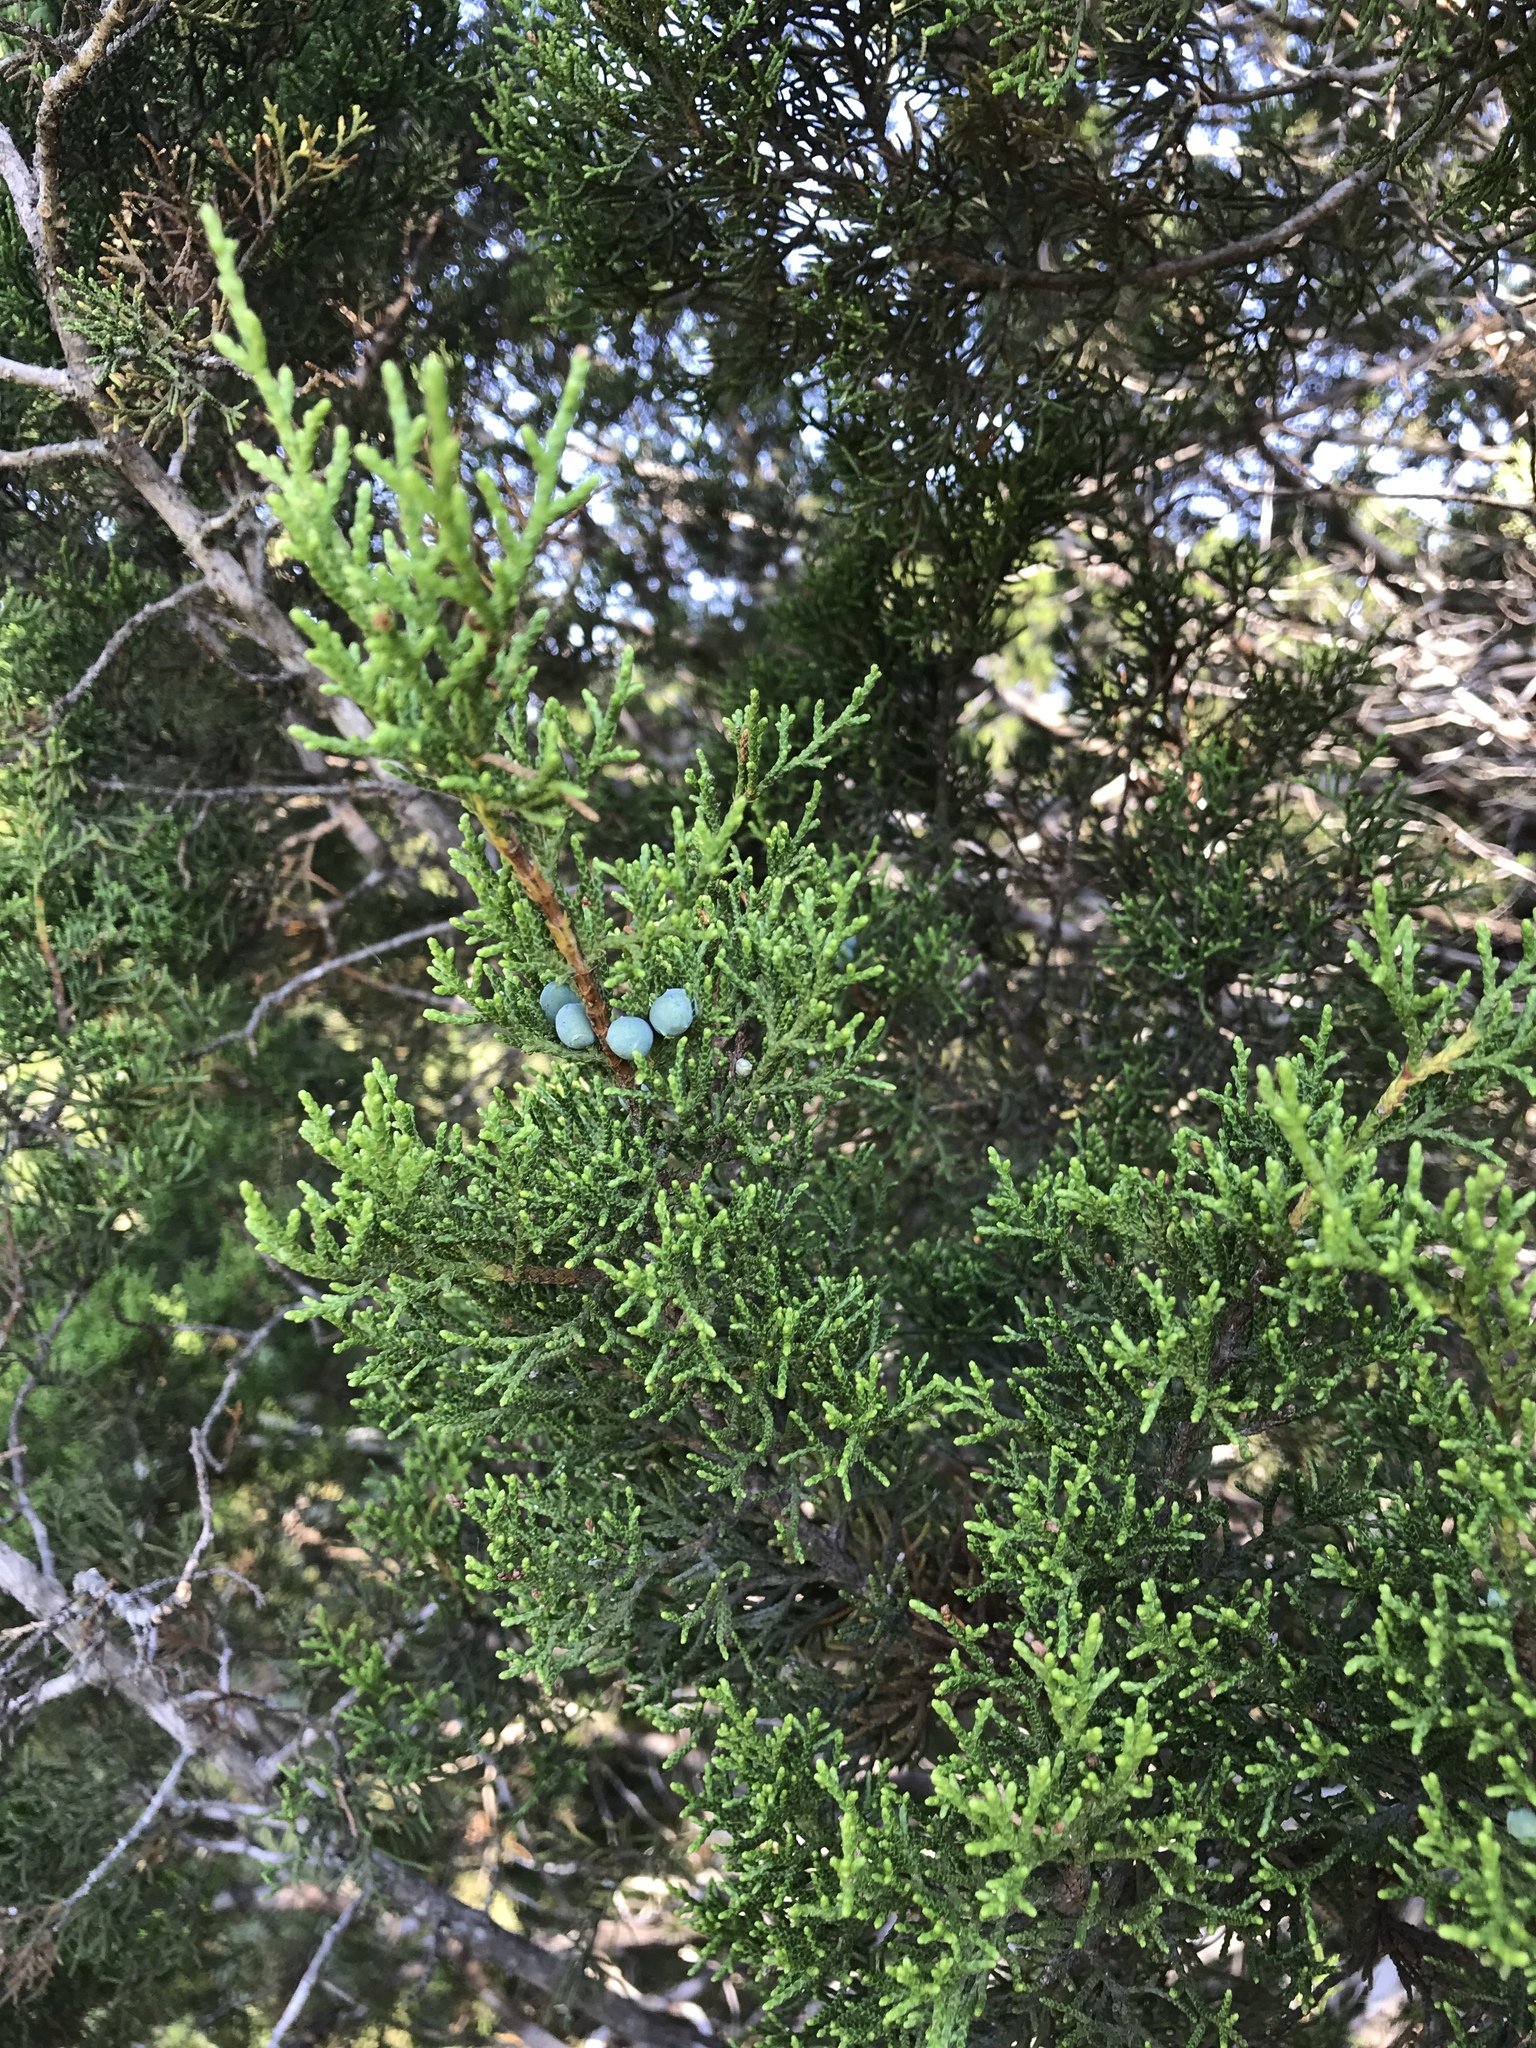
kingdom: Plantae
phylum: Tracheophyta
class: Pinopsida
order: Pinales
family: Cupressaceae
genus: Juniperus
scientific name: Juniperus ashei
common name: Mexican juniper
